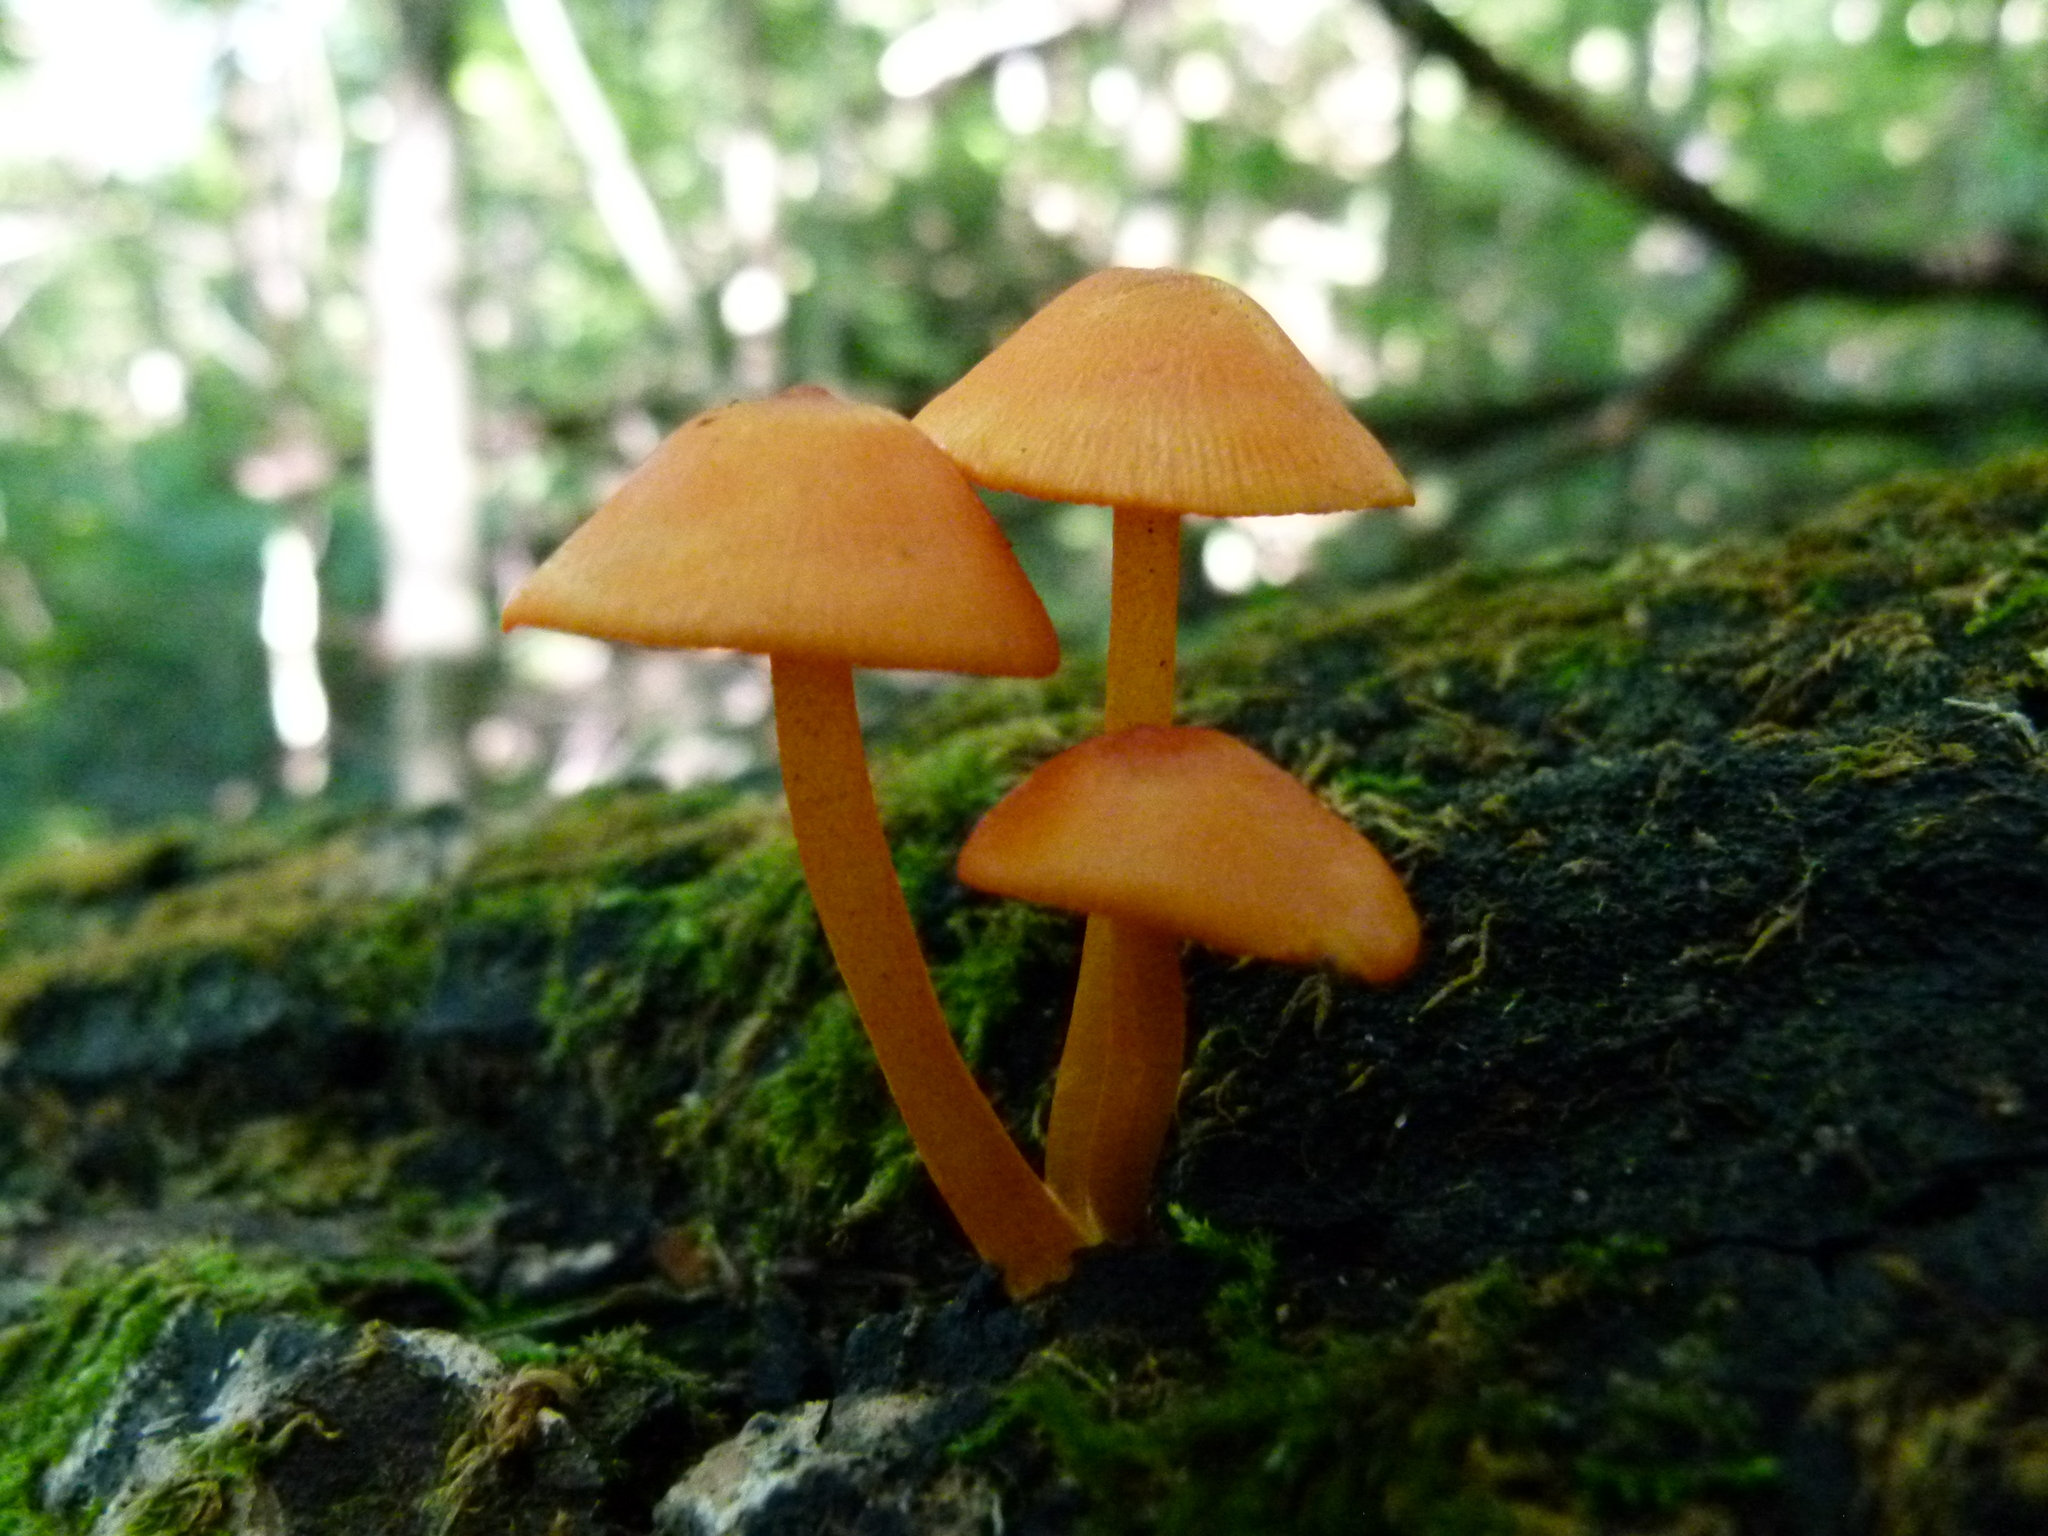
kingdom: Fungi
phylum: Basidiomycota
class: Agaricomycetes
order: Agaricales
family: Mycenaceae
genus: Mycena
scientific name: Mycena leaiana
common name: Orange mycena
